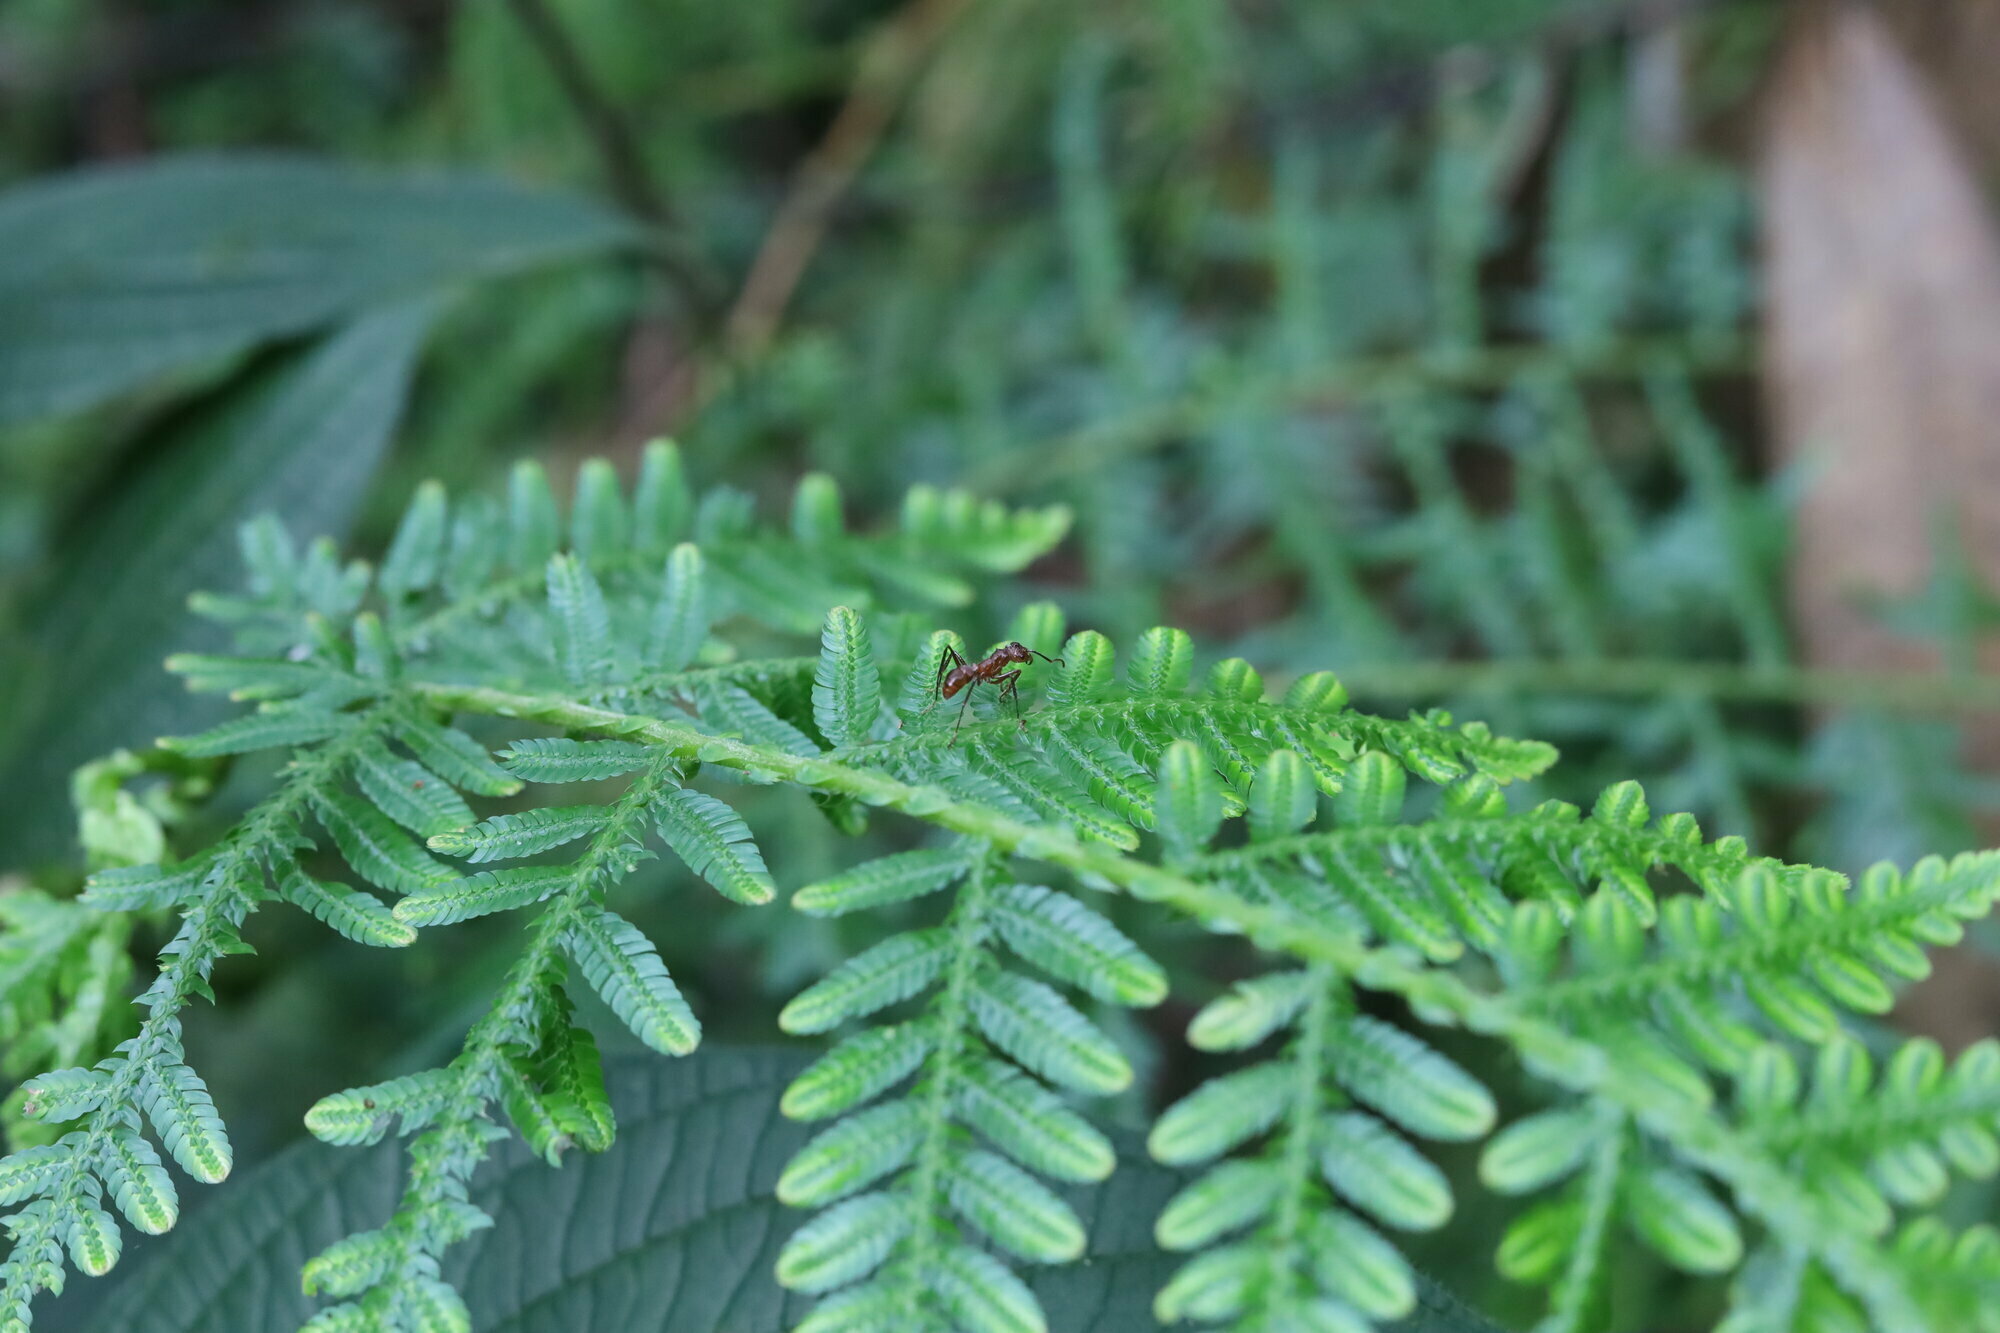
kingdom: Animalia
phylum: Arthropoda
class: Insecta
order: Hymenoptera
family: Formicidae
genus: Ectatomma
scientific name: Ectatomma tuberculatum
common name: Ant
